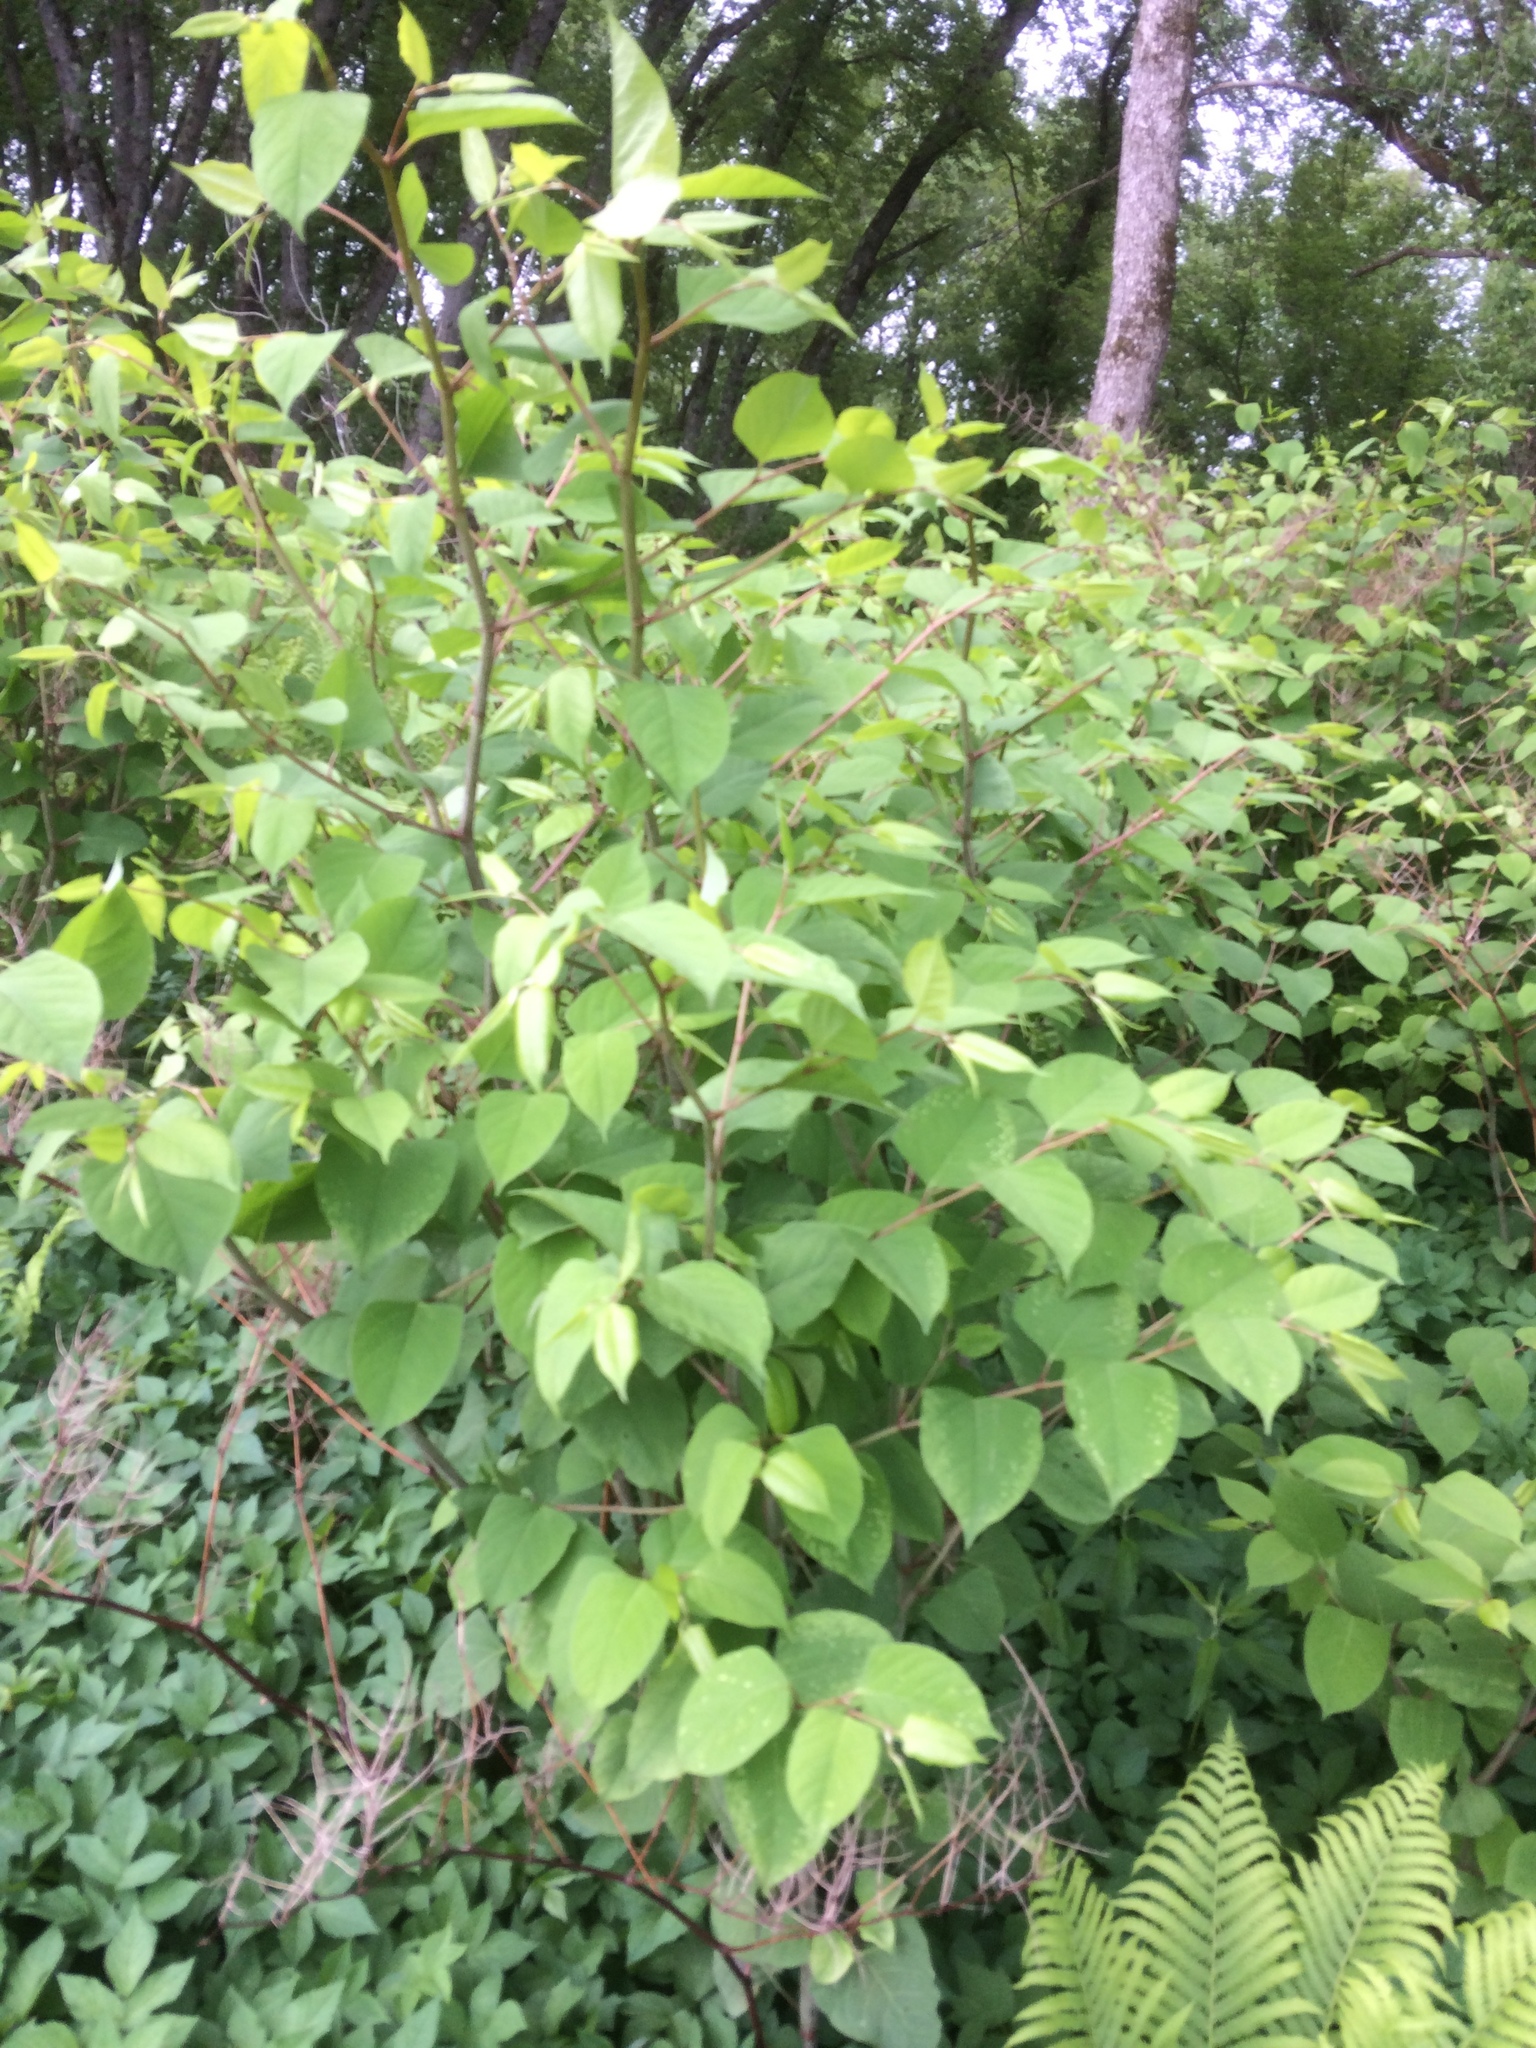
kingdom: Plantae
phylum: Tracheophyta
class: Magnoliopsida
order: Caryophyllales
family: Polygonaceae
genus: Reynoutria
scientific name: Reynoutria japonica
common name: Japanese knotweed
